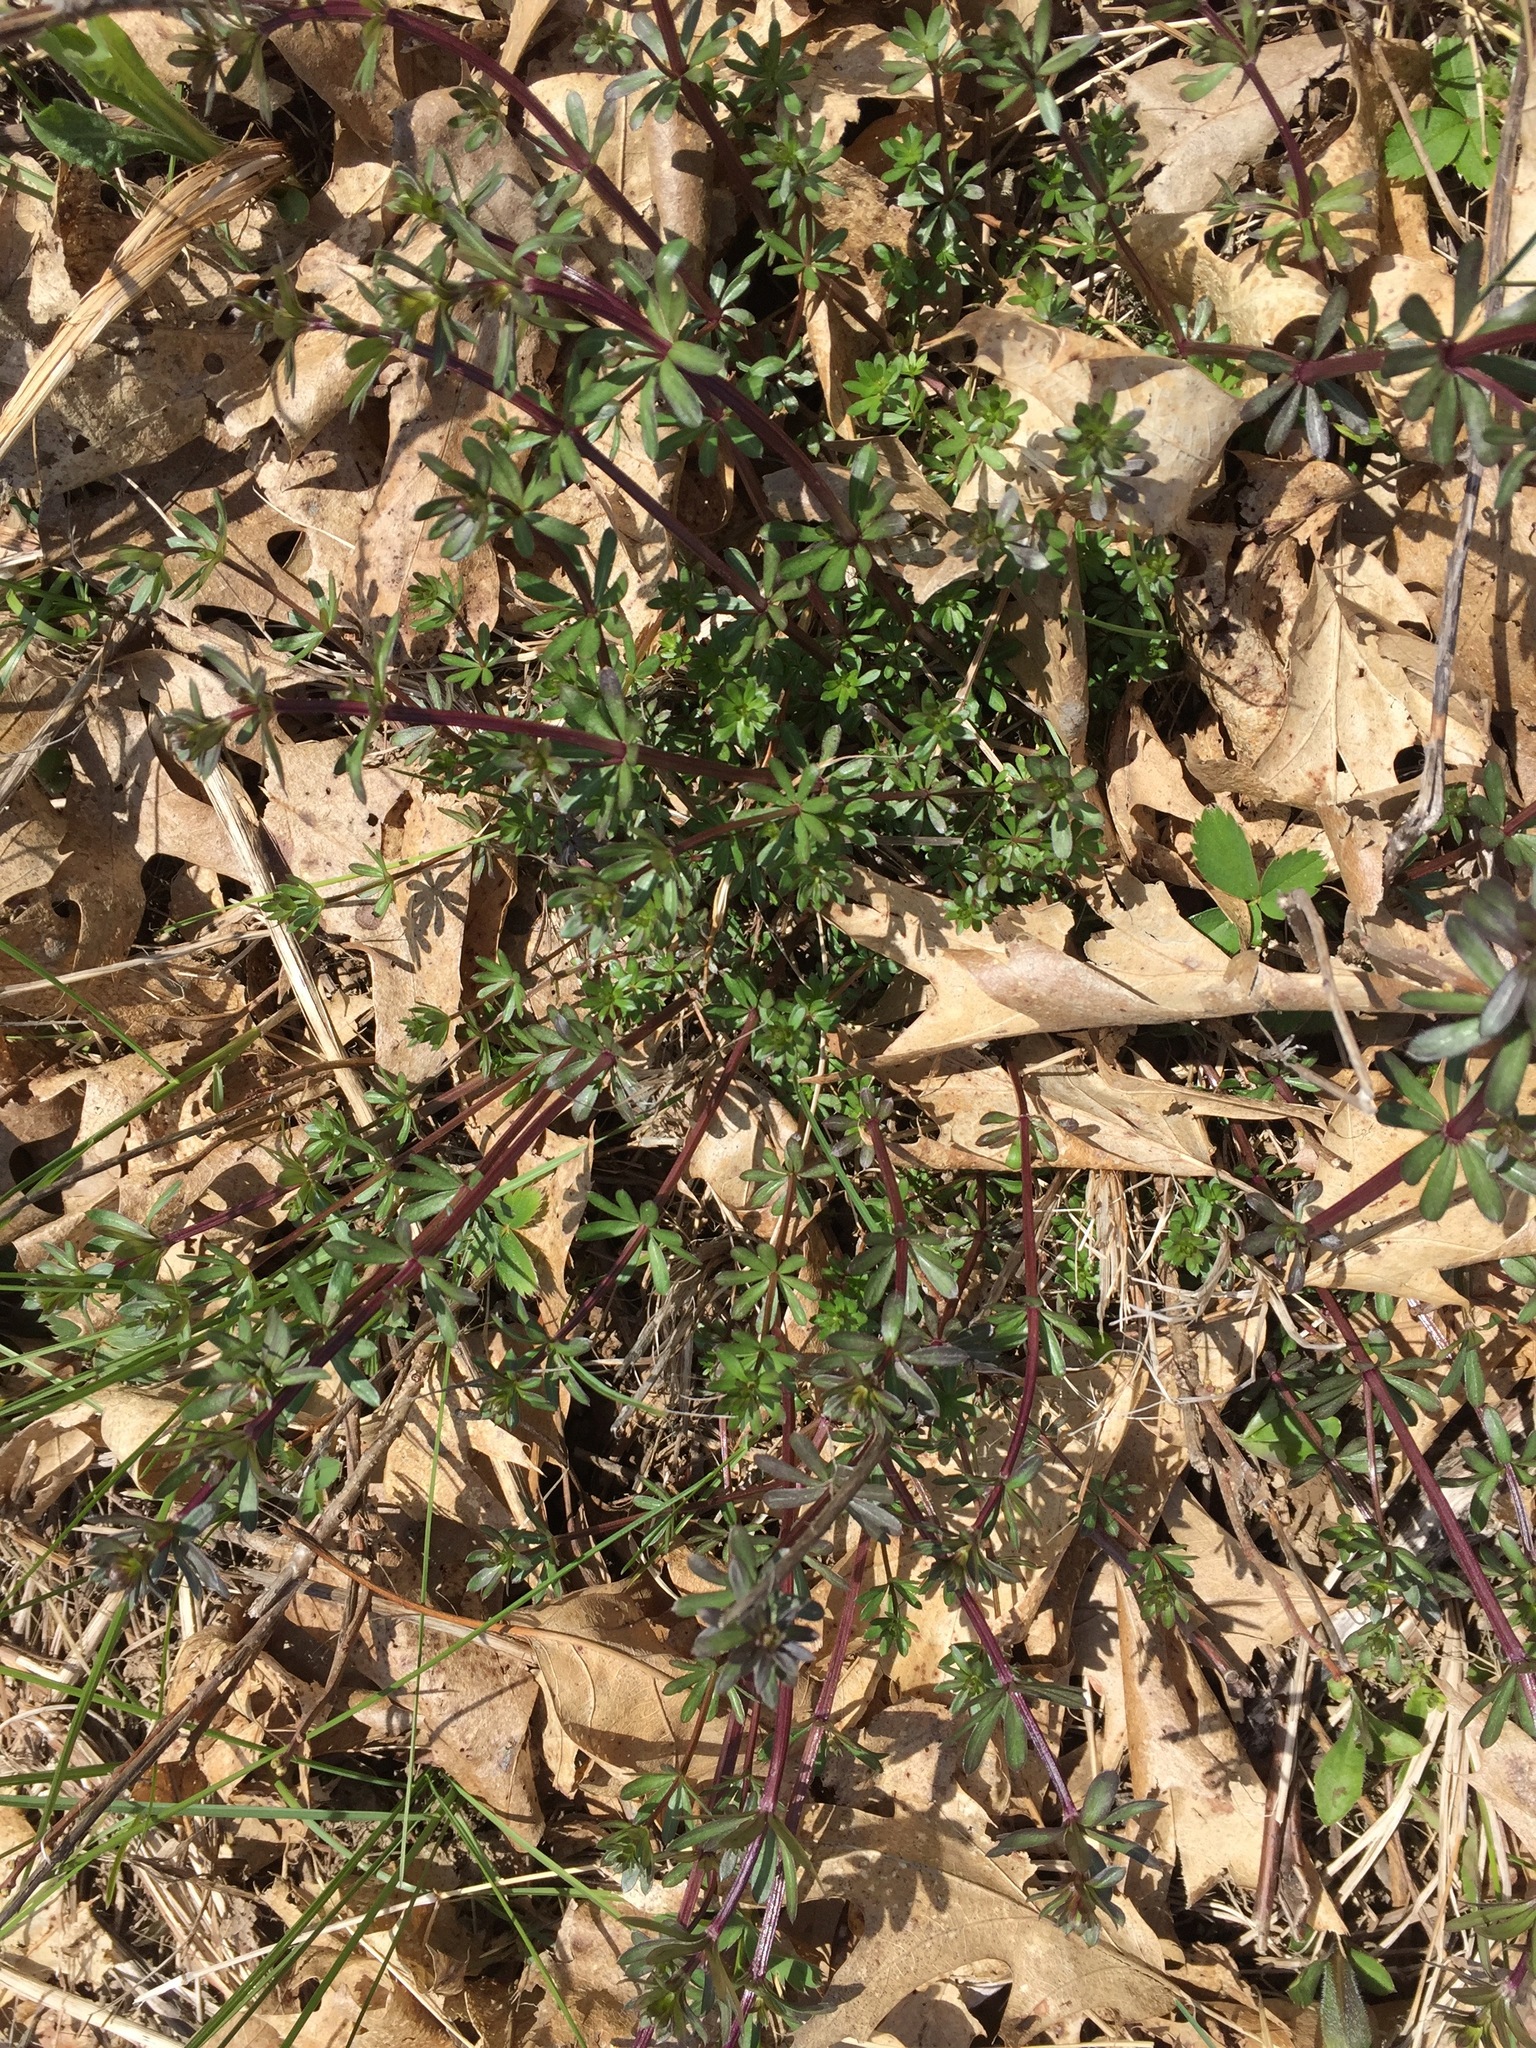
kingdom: Plantae
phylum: Tracheophyta
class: Magnoliopsida
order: Gentianales
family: Rubiaceae
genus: Galium
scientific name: Galium mollugo
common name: Hedge bedstraw
